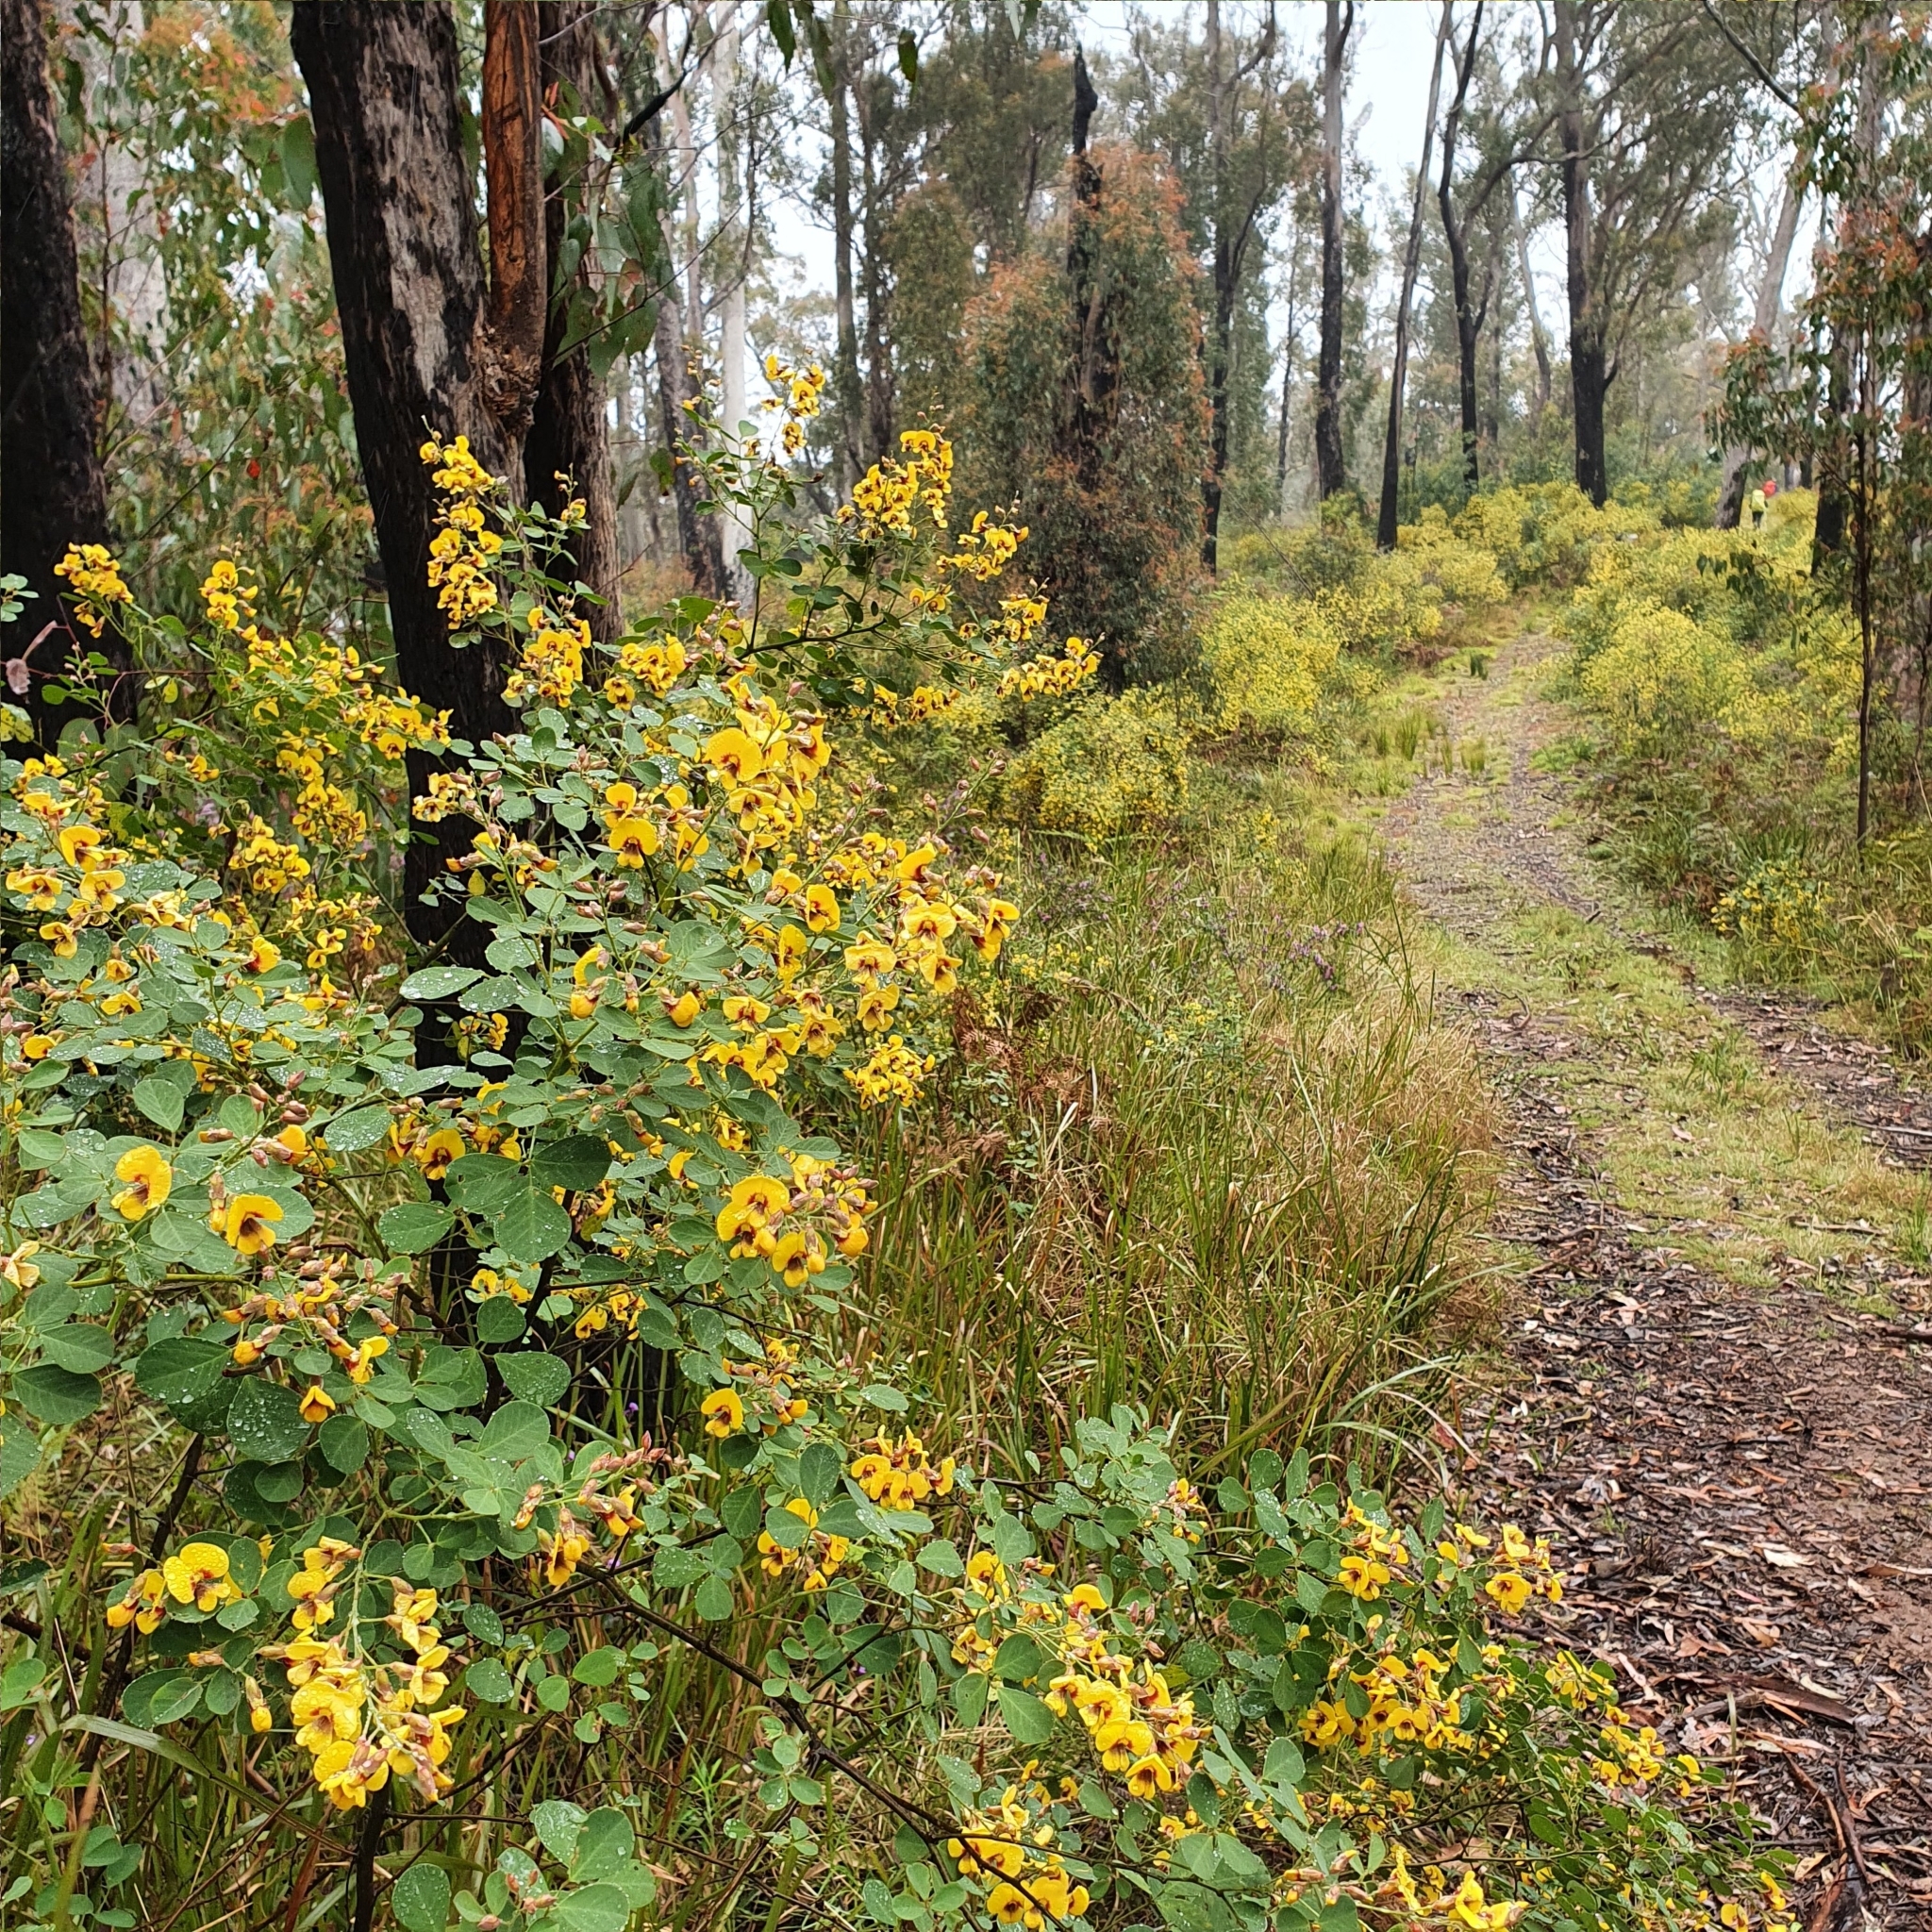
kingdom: Plantae
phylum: Tracheophyta
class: Magnoliopsida
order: Fabales
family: Fabaceae
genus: Goodia
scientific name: Goodia lotifolia
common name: Cloverleaf-poison
